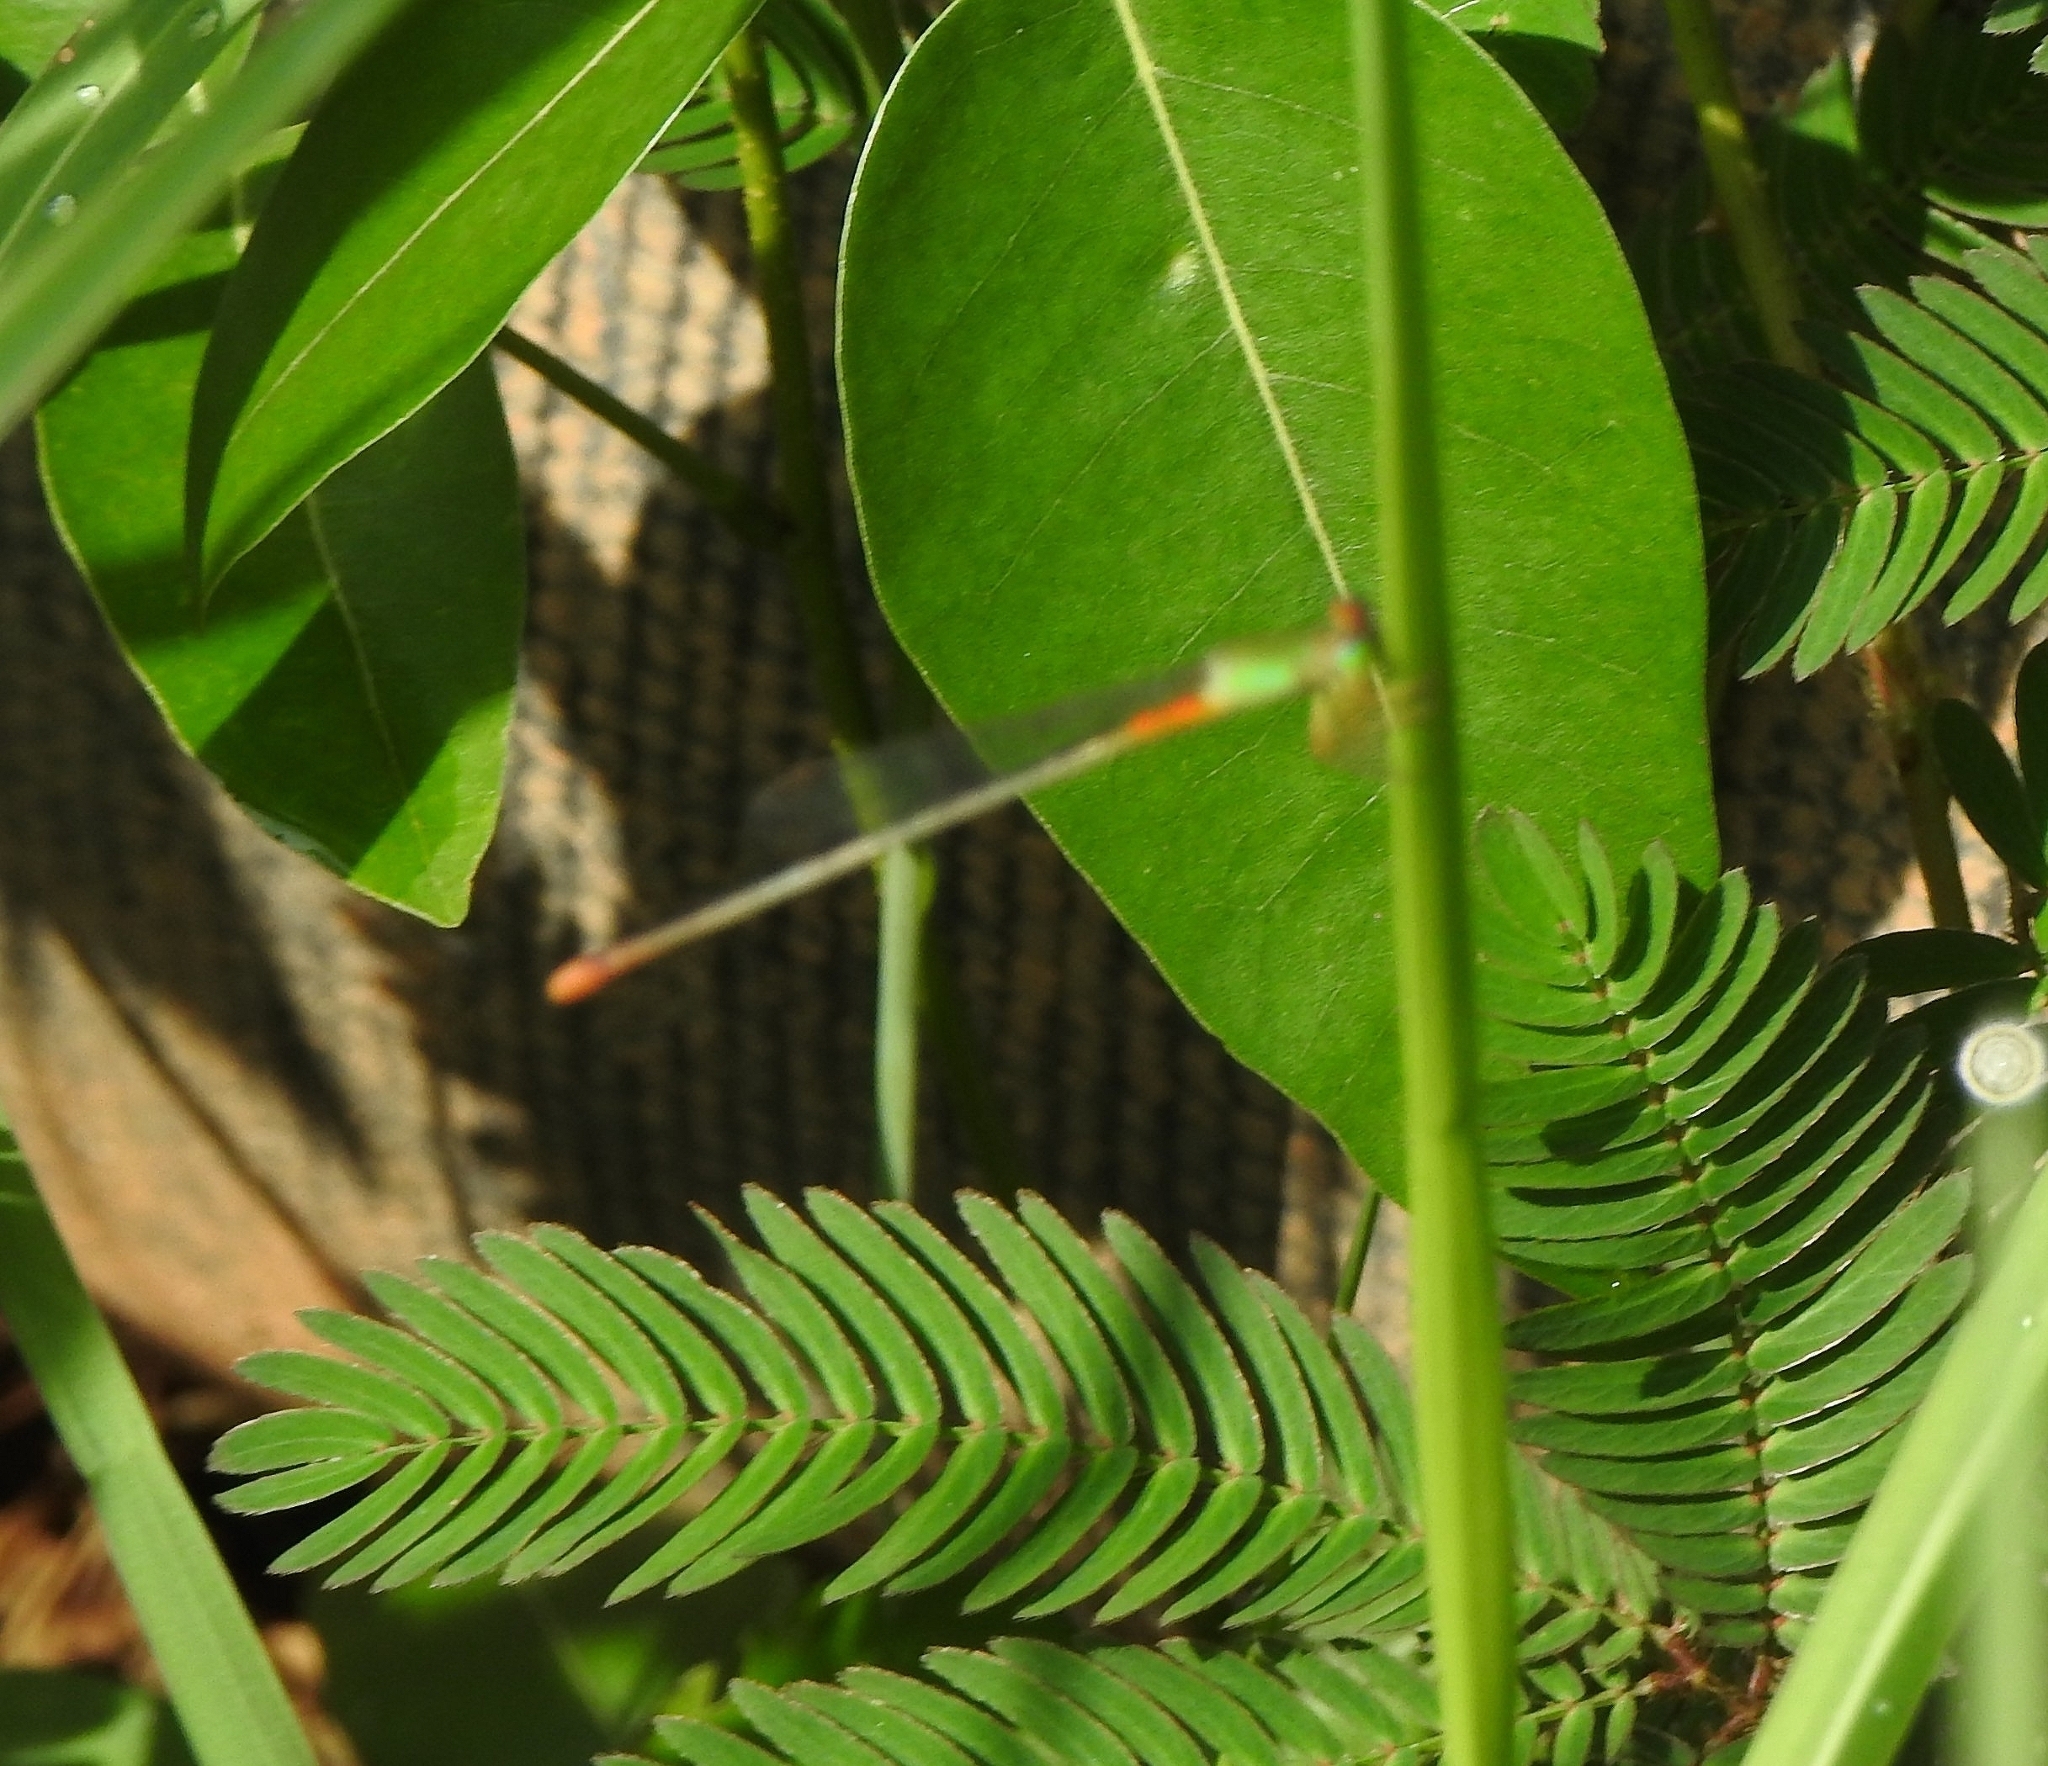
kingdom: Animalia
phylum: Arthropoda
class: Insecta
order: Odonata
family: Coenagrionidae
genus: Ceriagrion
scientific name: Ceriagrion cerinorubellum
